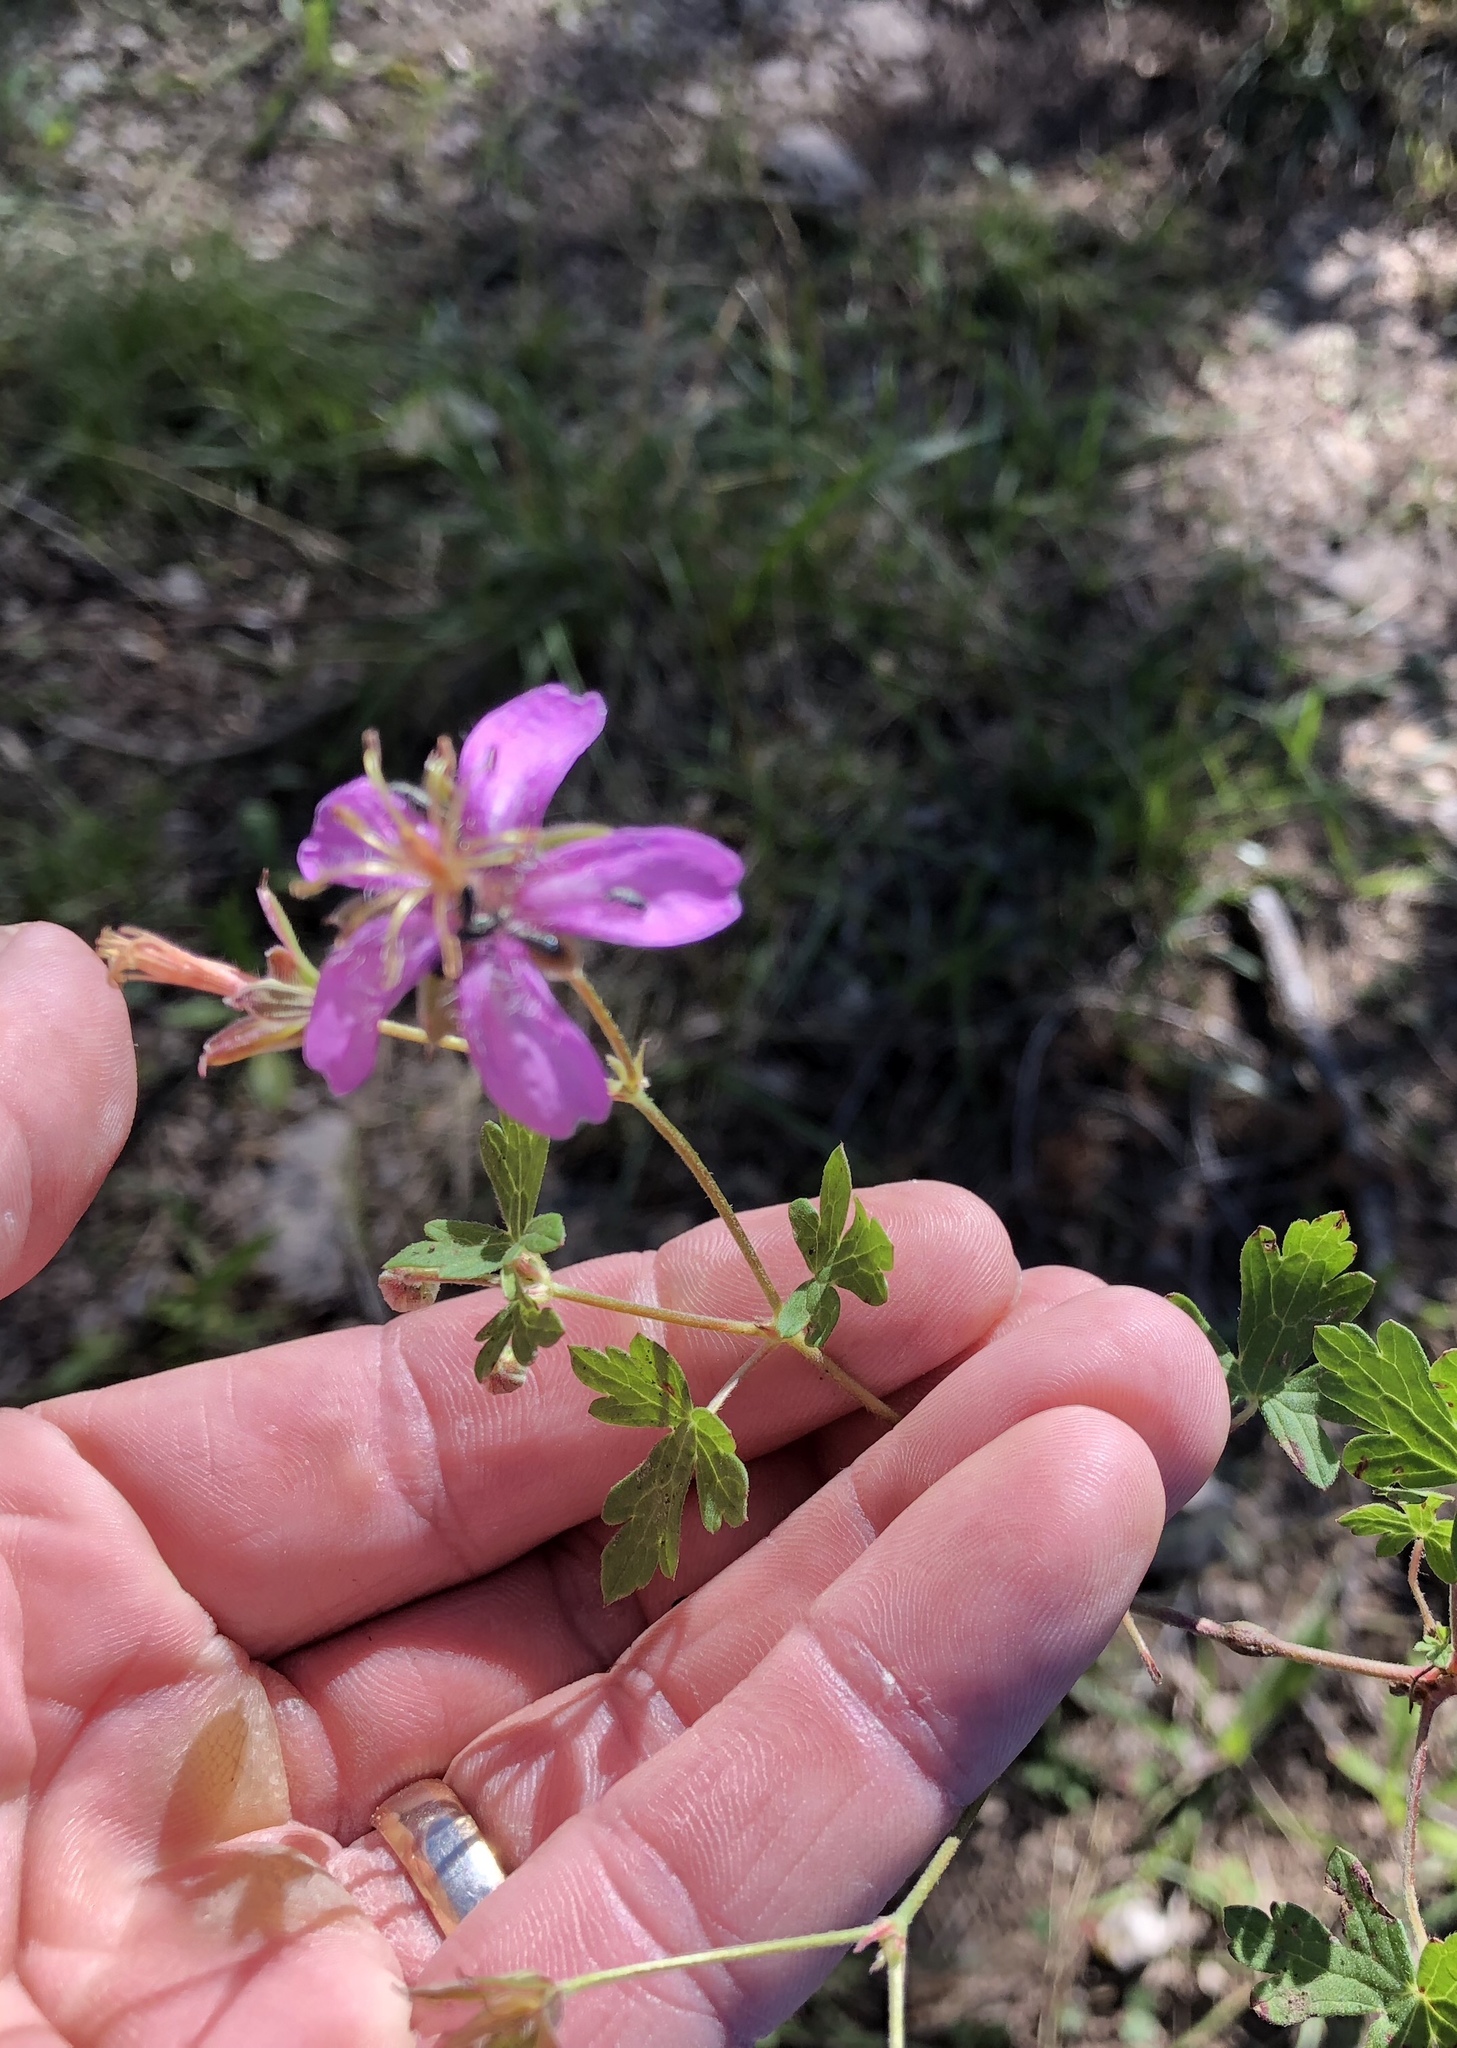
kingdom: Plantae
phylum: Tracheophyta
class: Magnoliopsida
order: Geraniales
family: Geraniaceae
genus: Geranium
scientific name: Geranium caespitosum
